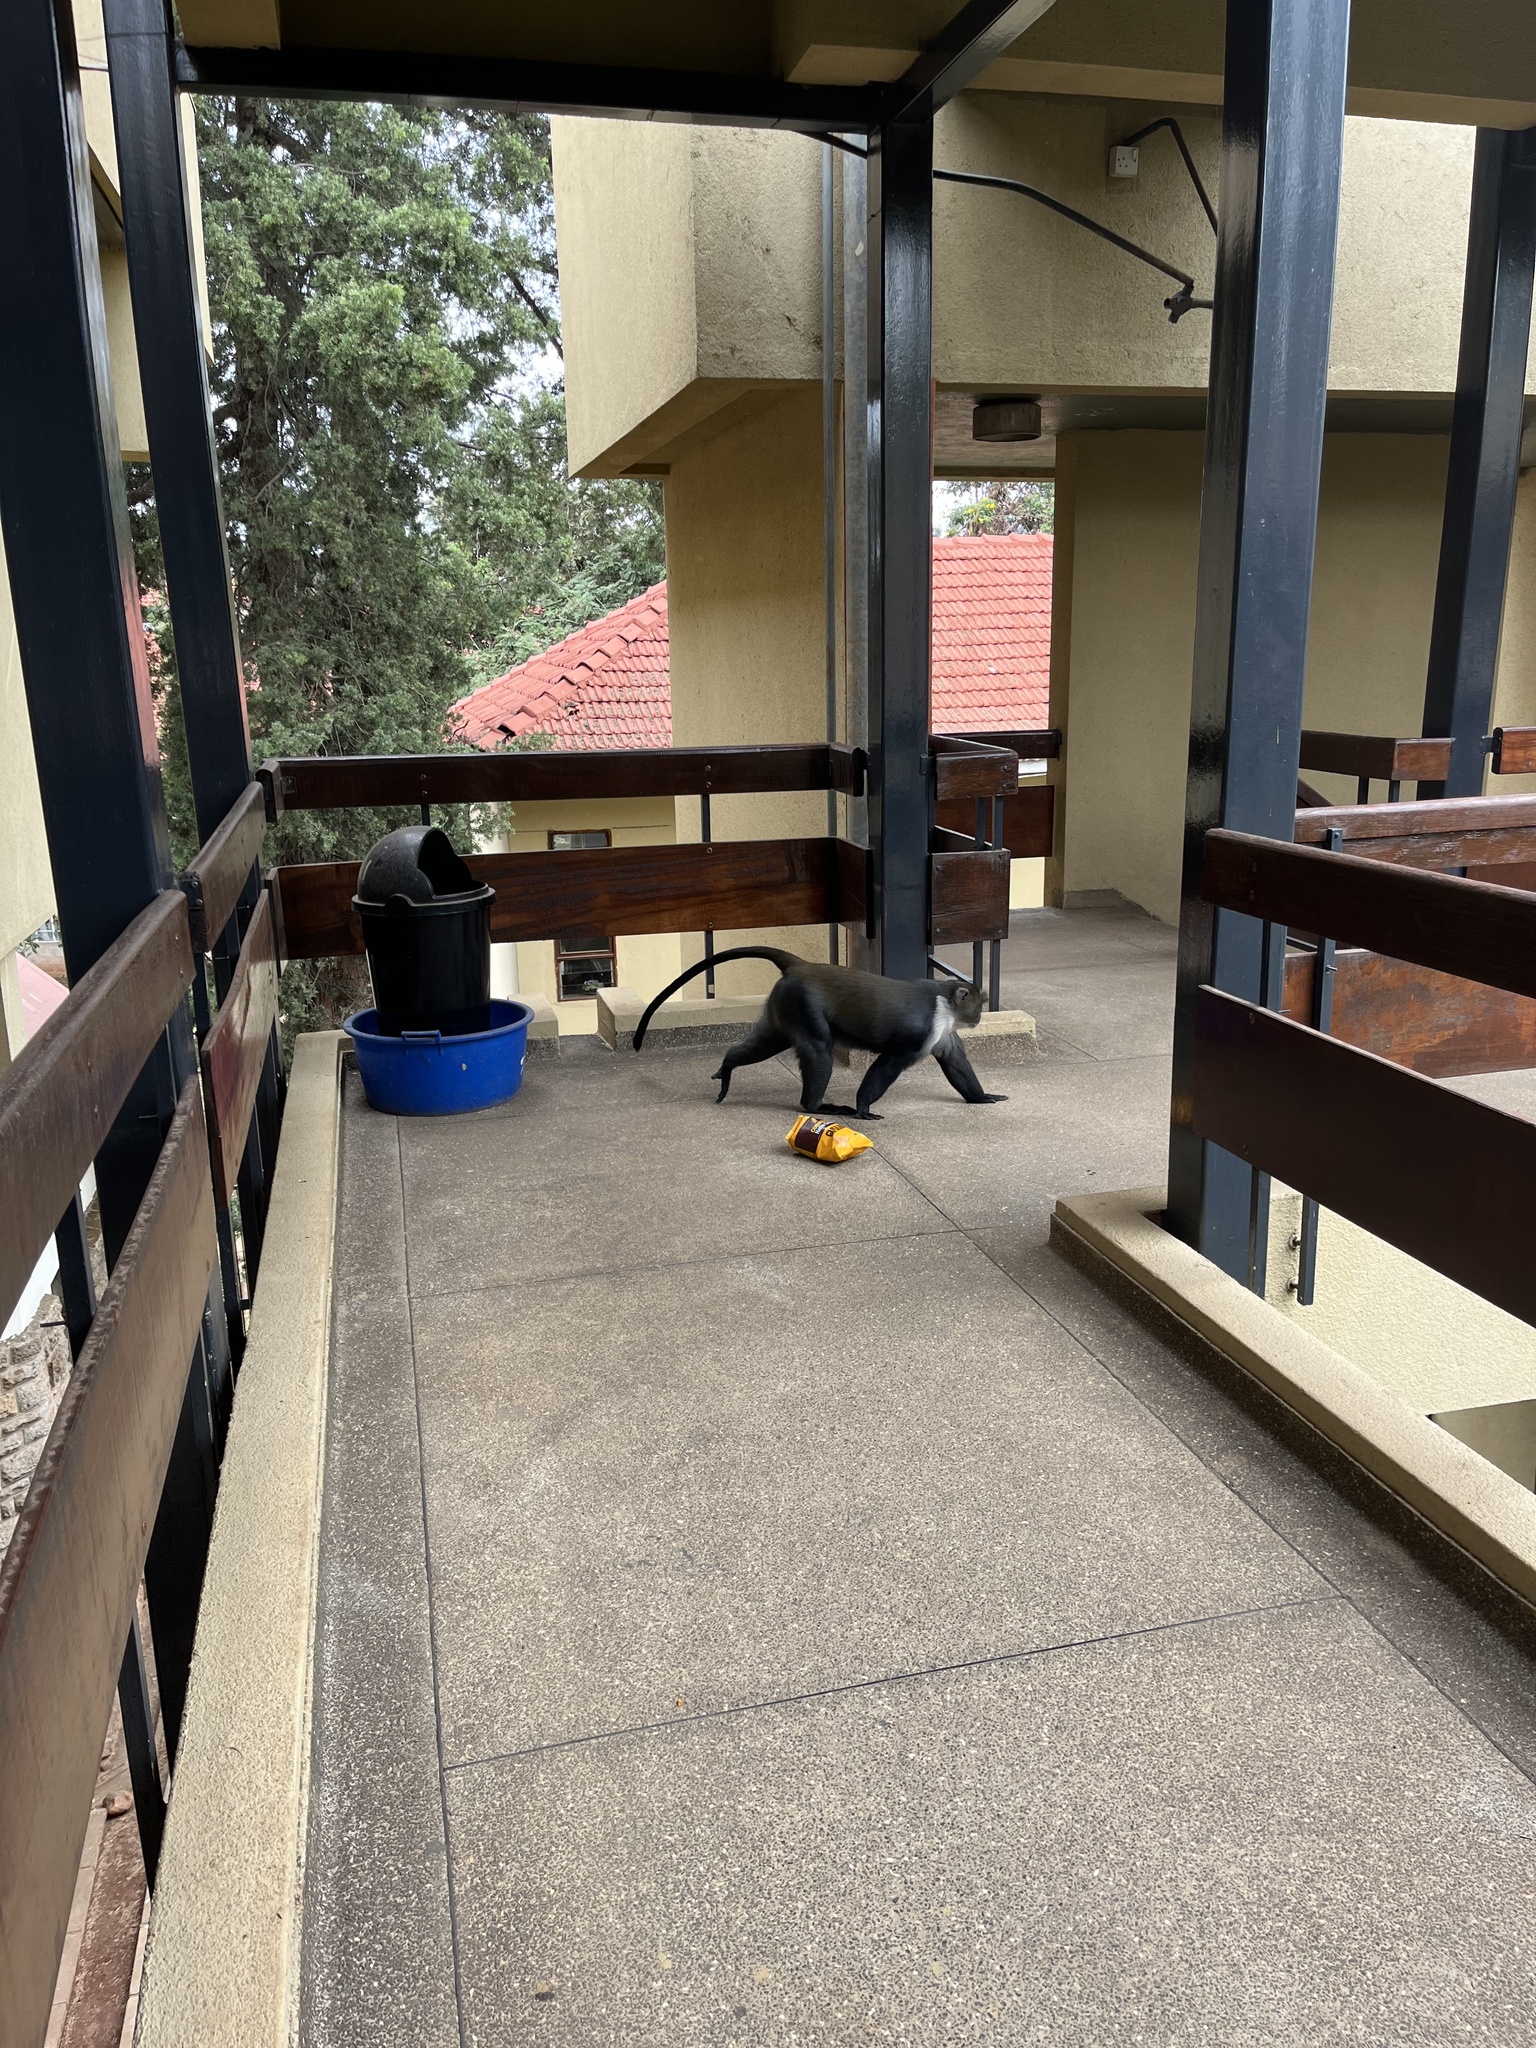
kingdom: Animalia
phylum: Chordata
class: Mammalia
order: Primates
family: Cercopithecidae
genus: Cercopithecus
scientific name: Cercopithecus mitis
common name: Blue monkey
